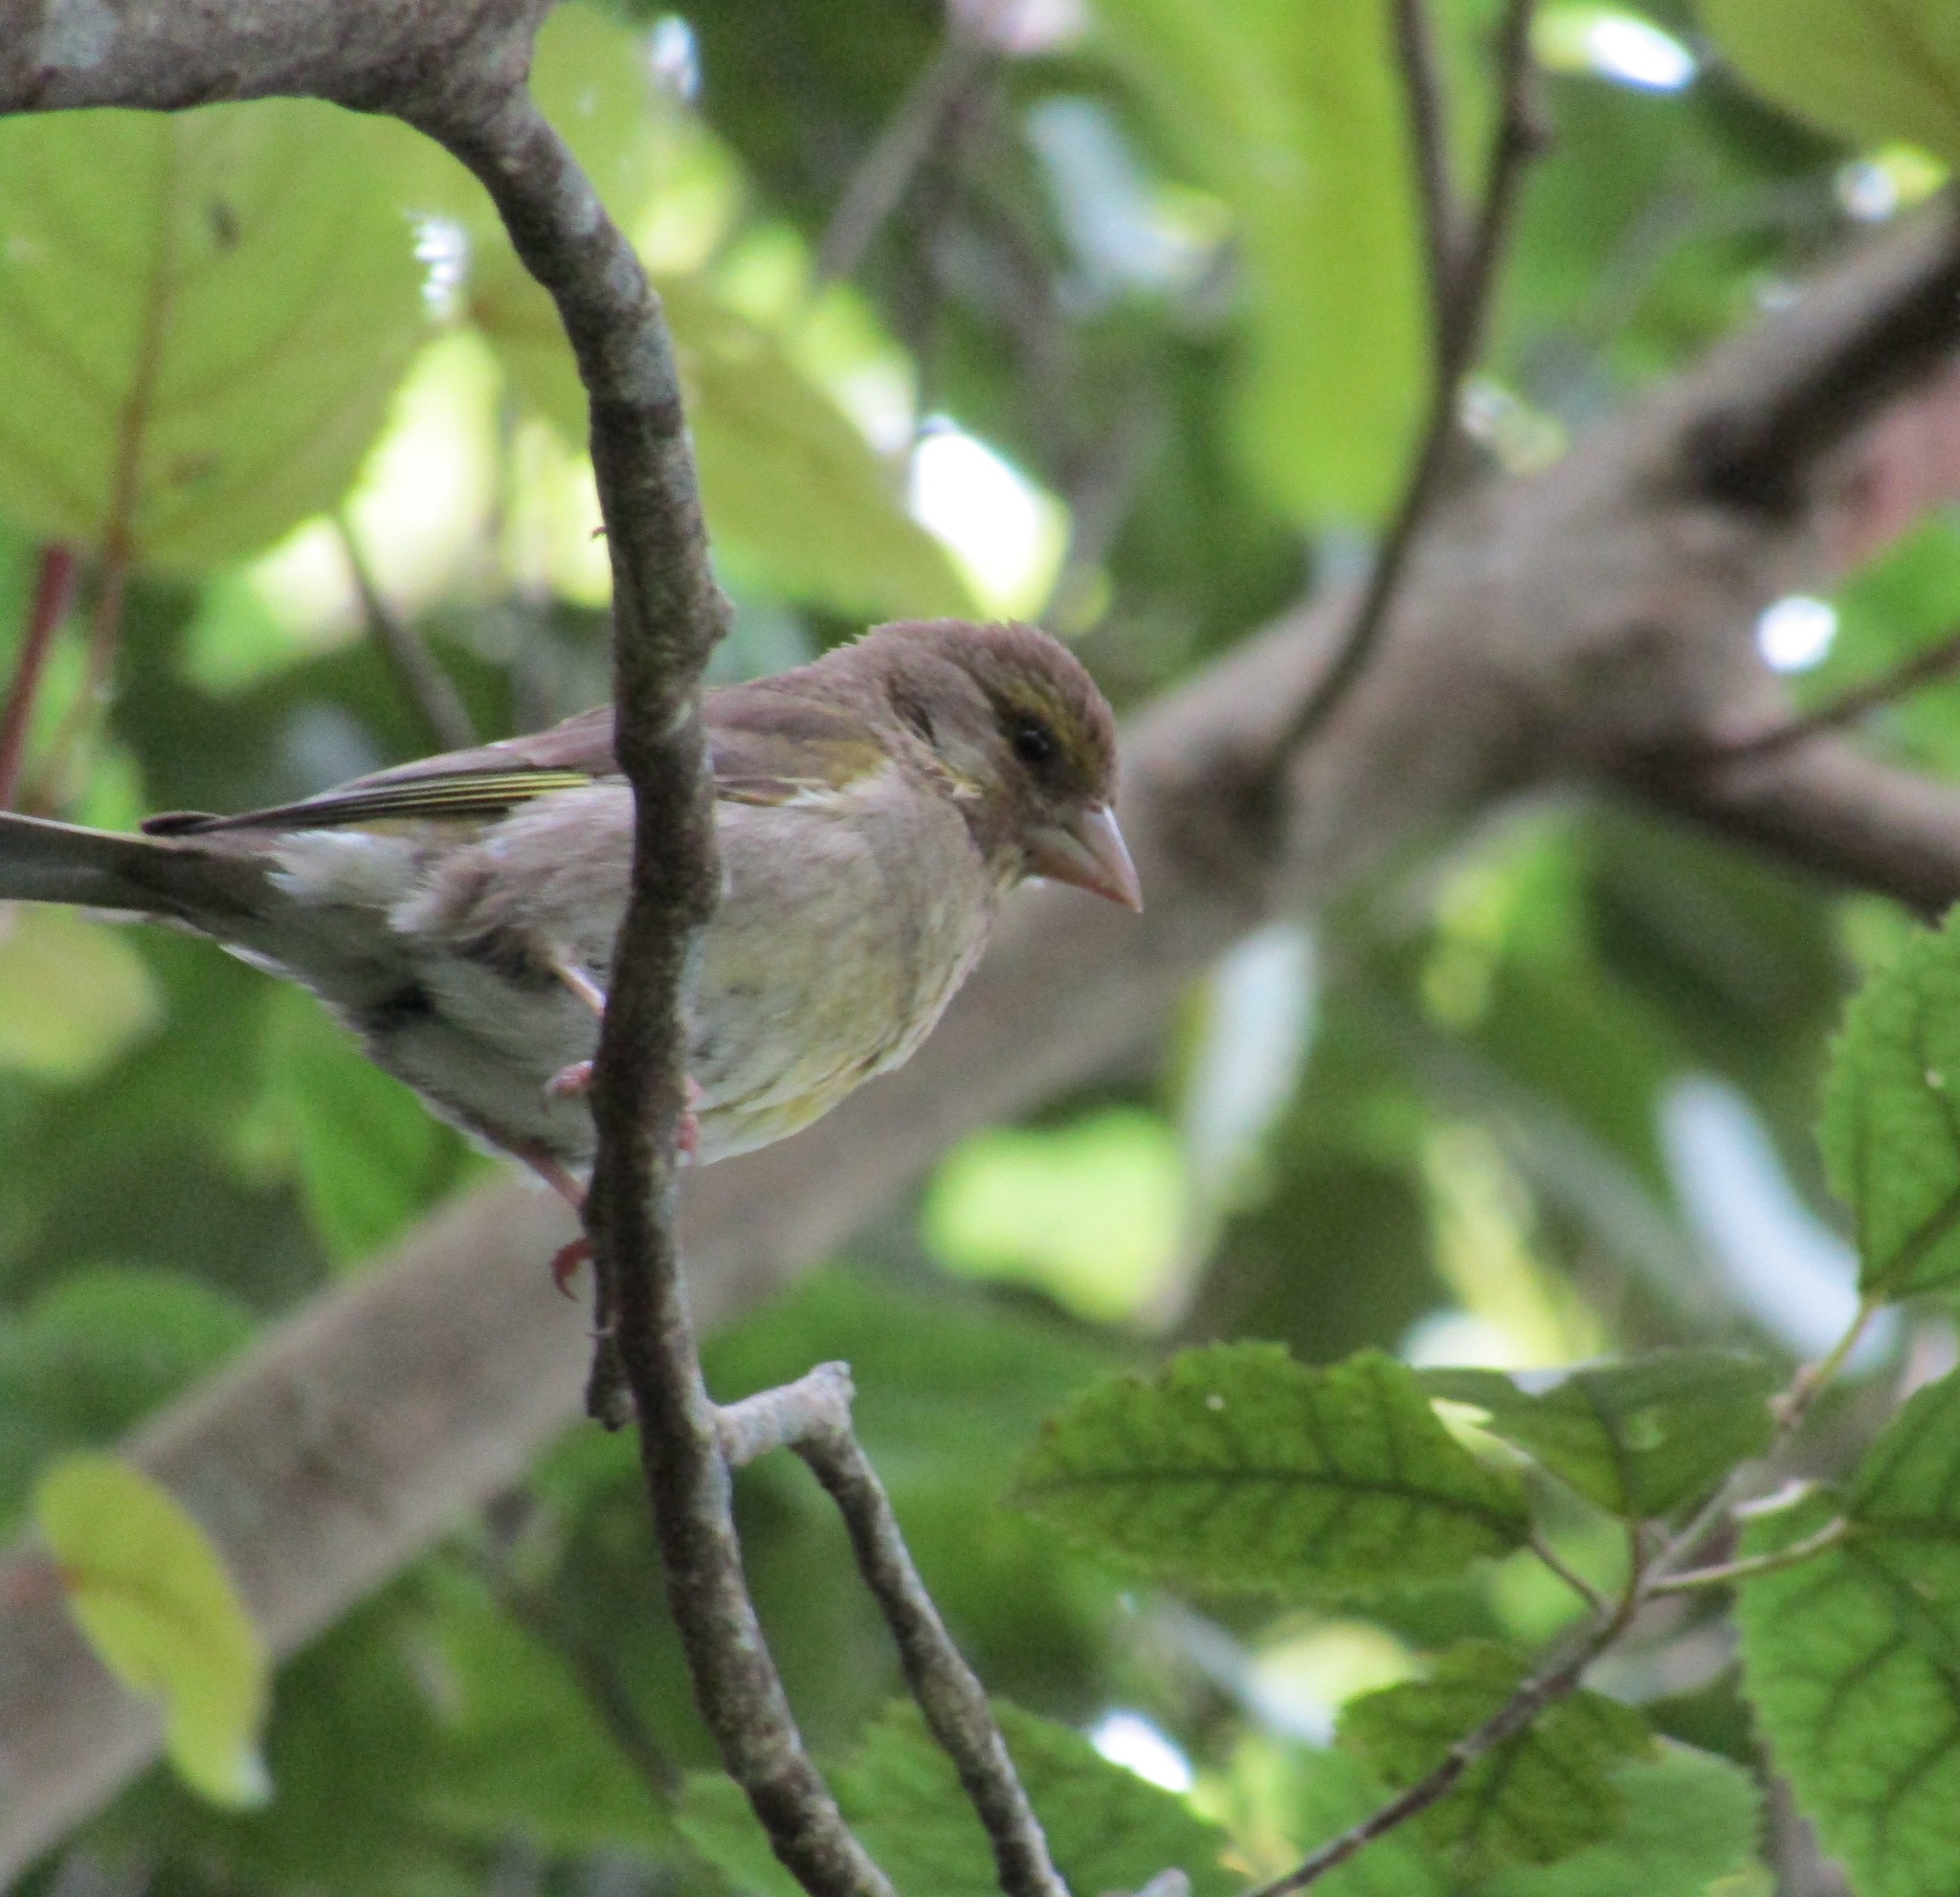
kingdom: Plantae
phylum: Tracheophyta
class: Liliopsida
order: Poales
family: Poaceae
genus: Chloris
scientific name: Chloris chloris
